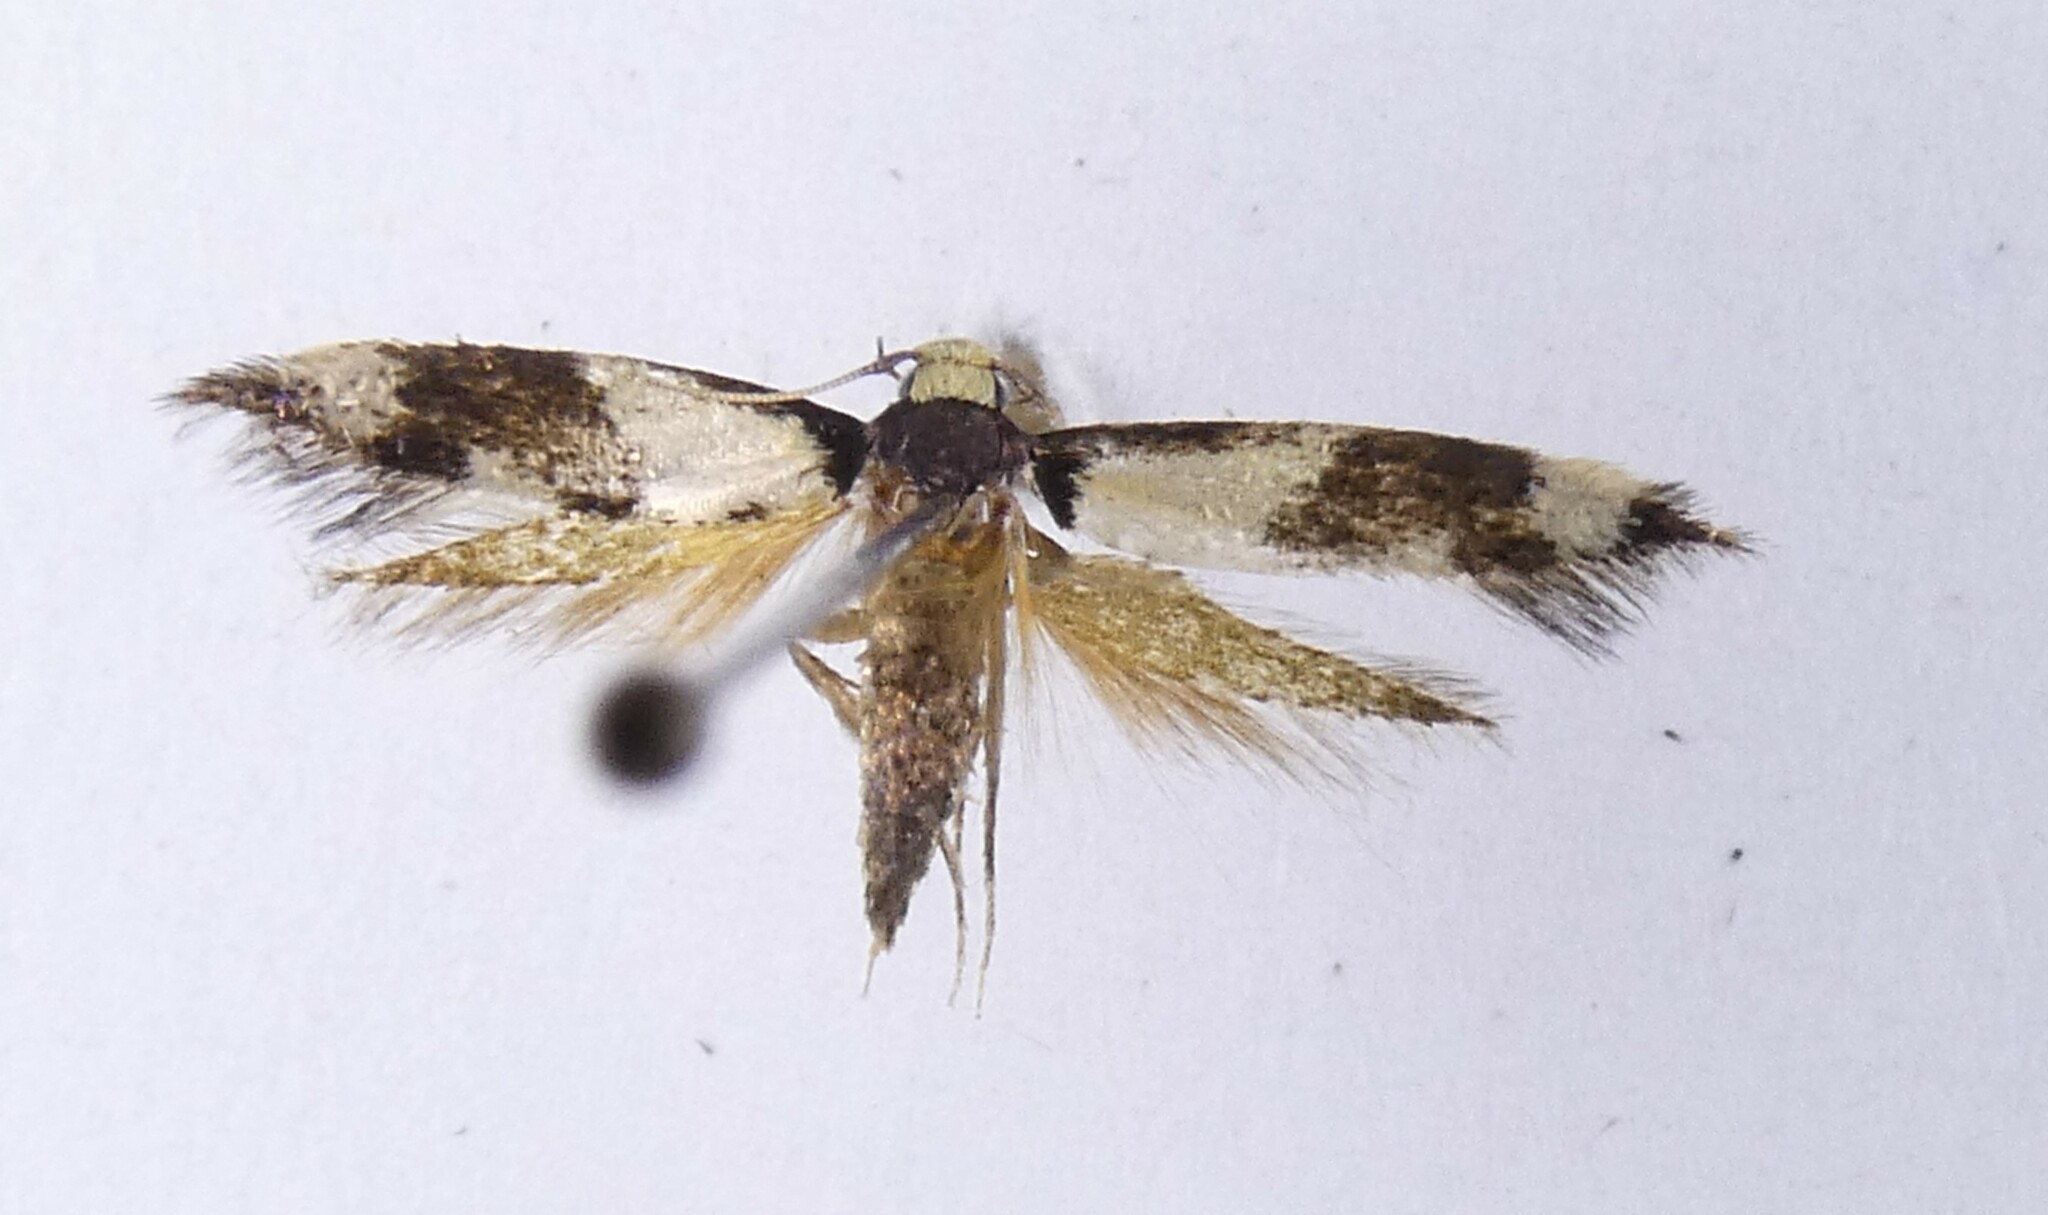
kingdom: Animalia
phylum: Arthropoda
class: Insecta
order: Lepidoptera
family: Tineidae
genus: Opogona
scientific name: Opogona comptella
